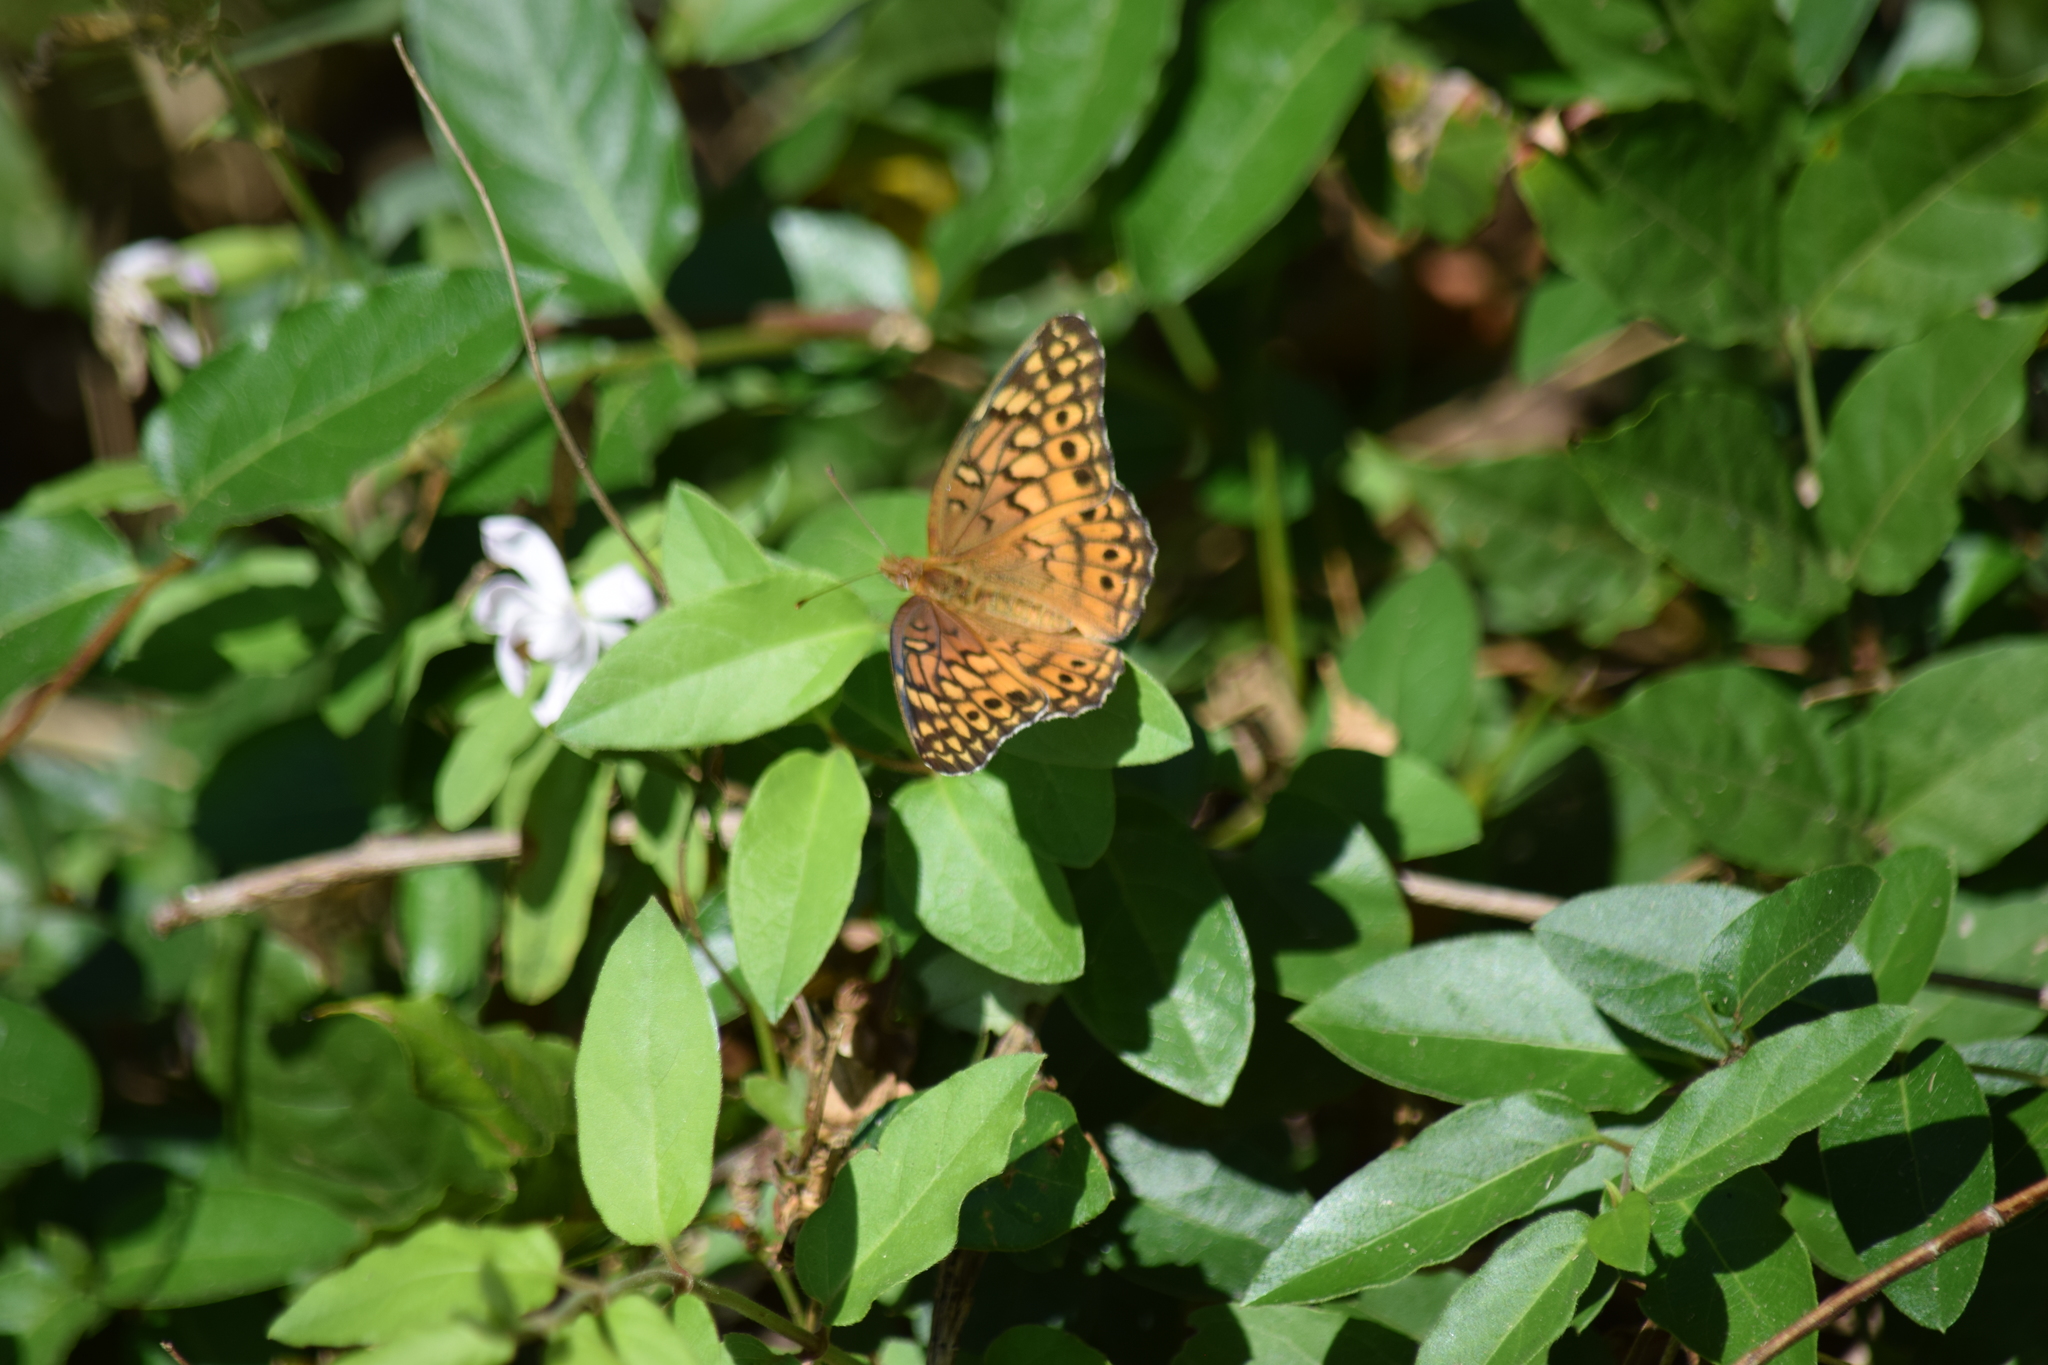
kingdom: Animalia
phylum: Arthropoda
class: Insecta
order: Lepidoptera
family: Nymphalidae
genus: Euptoieta
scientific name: Euptoieta claudia
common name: Variegated fritillary
